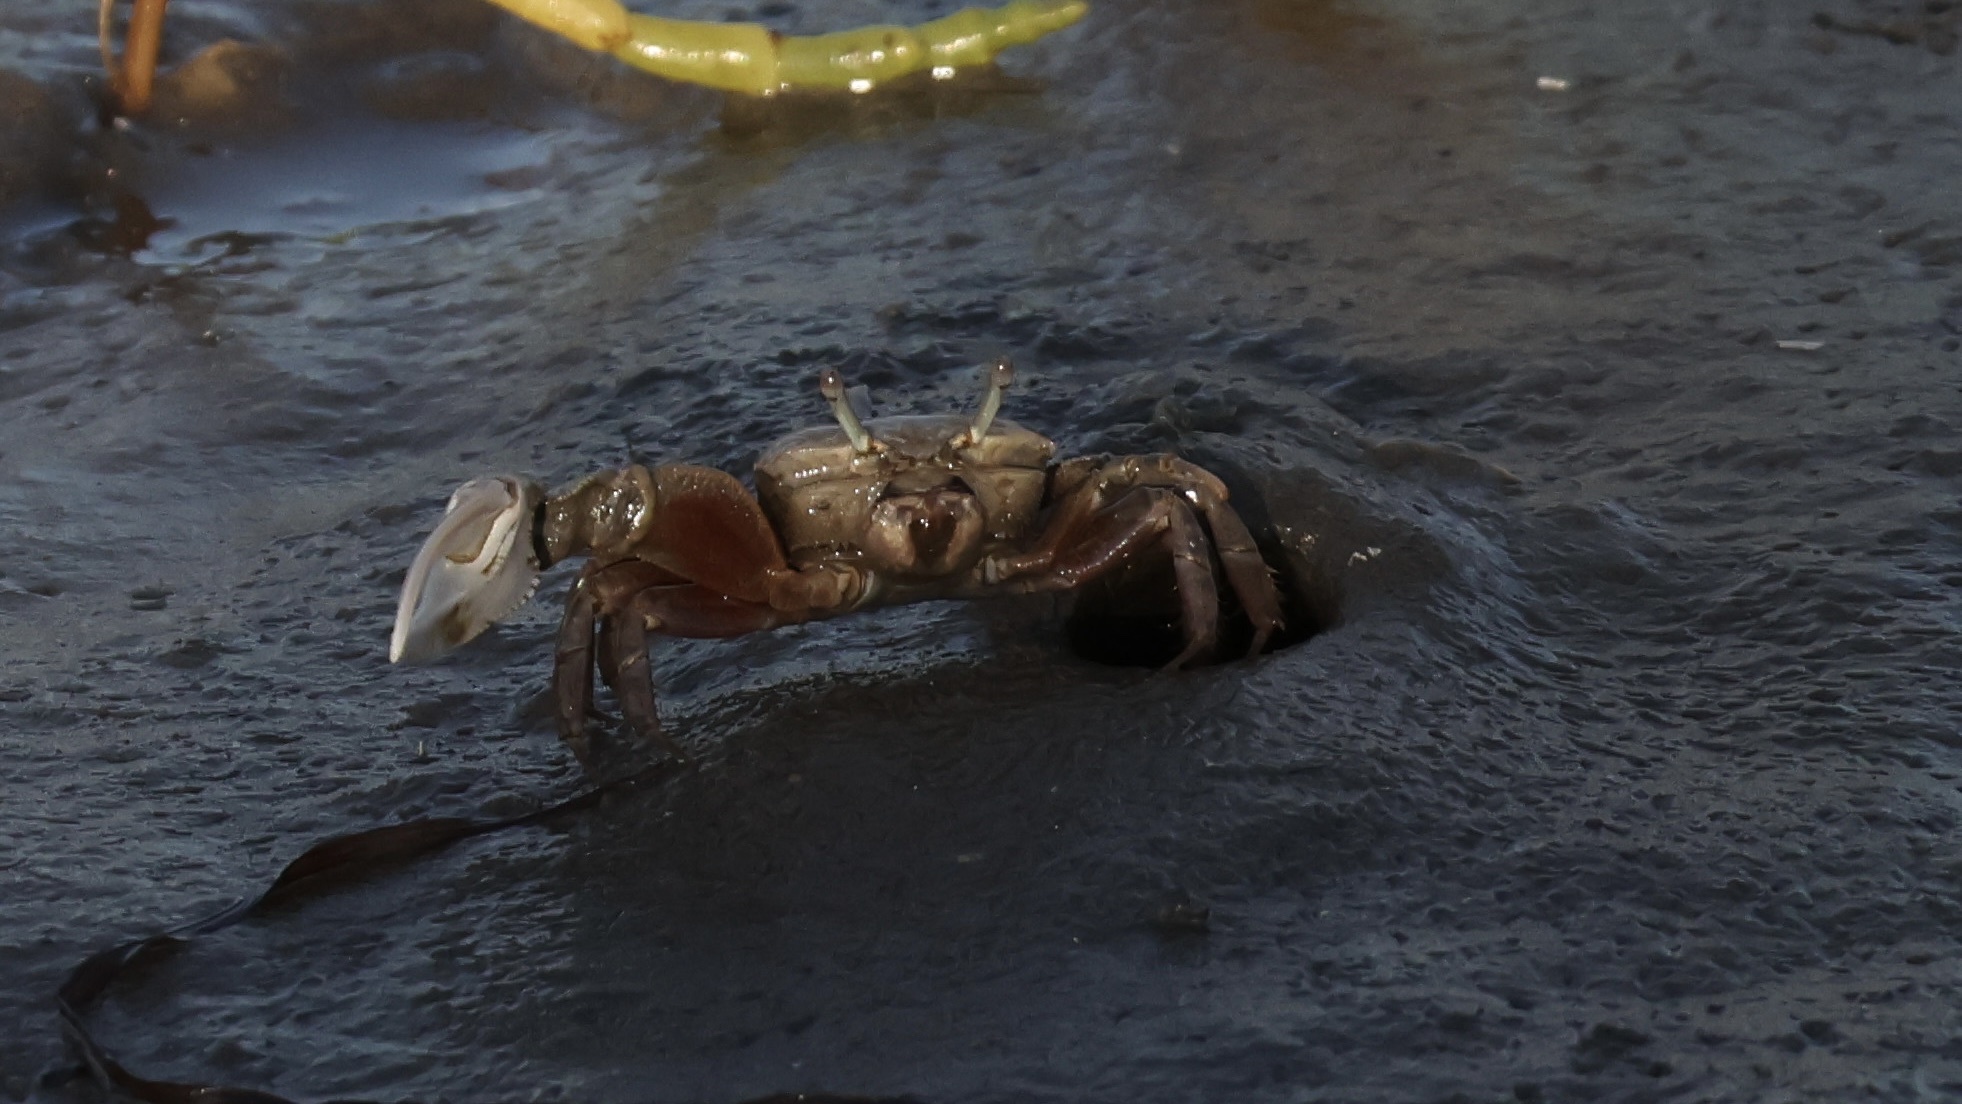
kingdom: Animalia
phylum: Arthropoda
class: Malacostraca
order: Decapoda
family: Ocypodidae
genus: Leptuca
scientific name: Leptuca crenulata
